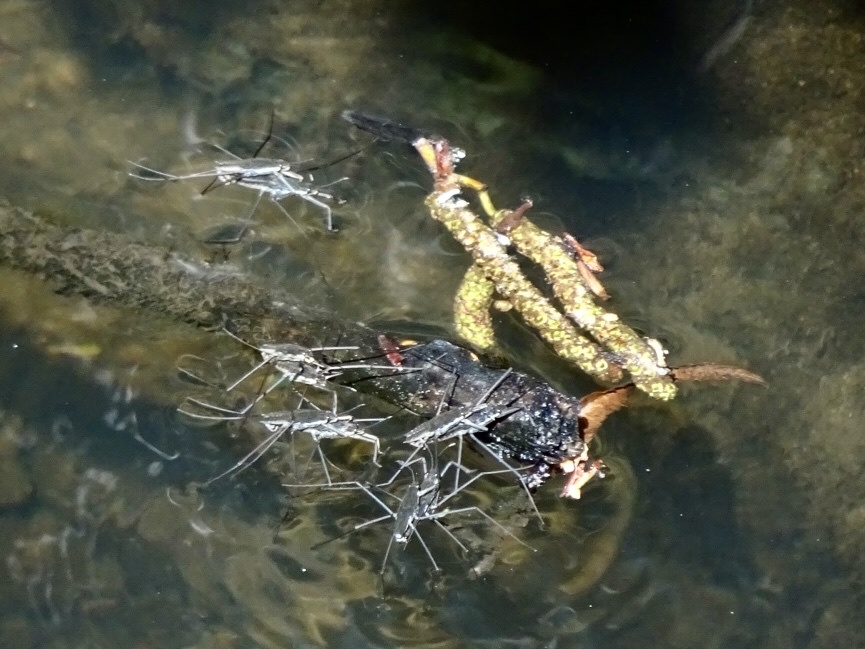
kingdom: Animalia
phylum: Arthropoda
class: Insecta
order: Hemiptera
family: Gerridae
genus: Aquarius
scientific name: Aquarius remigis
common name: Common water strider
